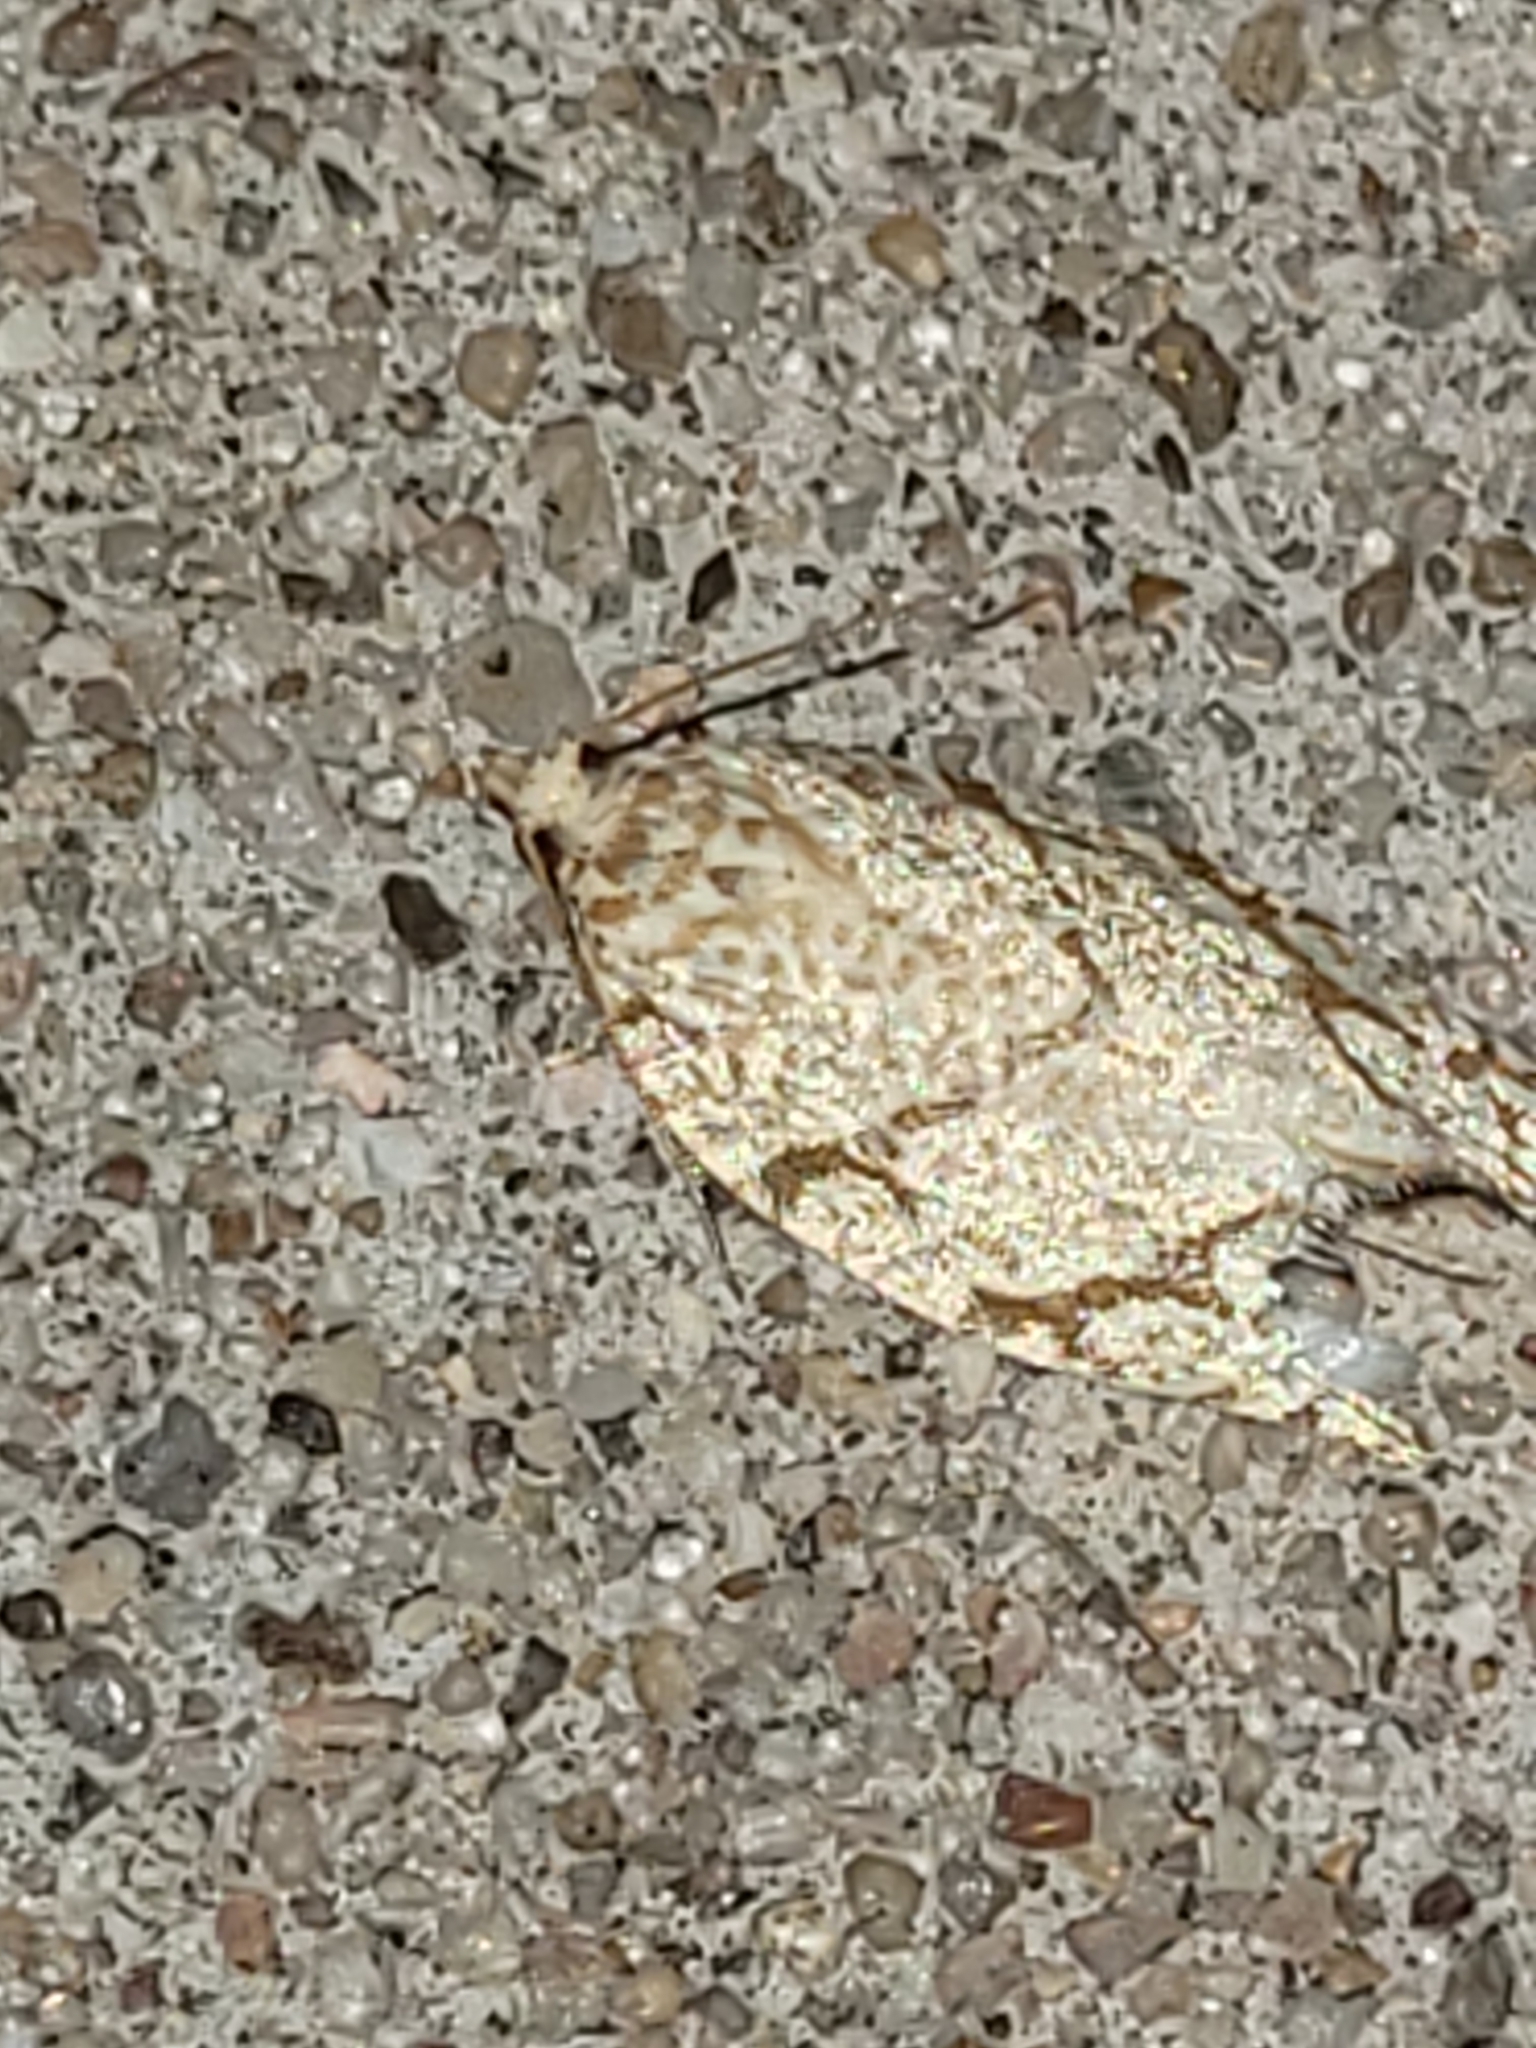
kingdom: Animalia
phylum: Arthropoda
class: Insecta
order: Lepidoptera
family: Tortricidae
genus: Argyrotaenia
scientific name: Argyrotaenia quercifoliana
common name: Yellow-winged oak leafroller moth
